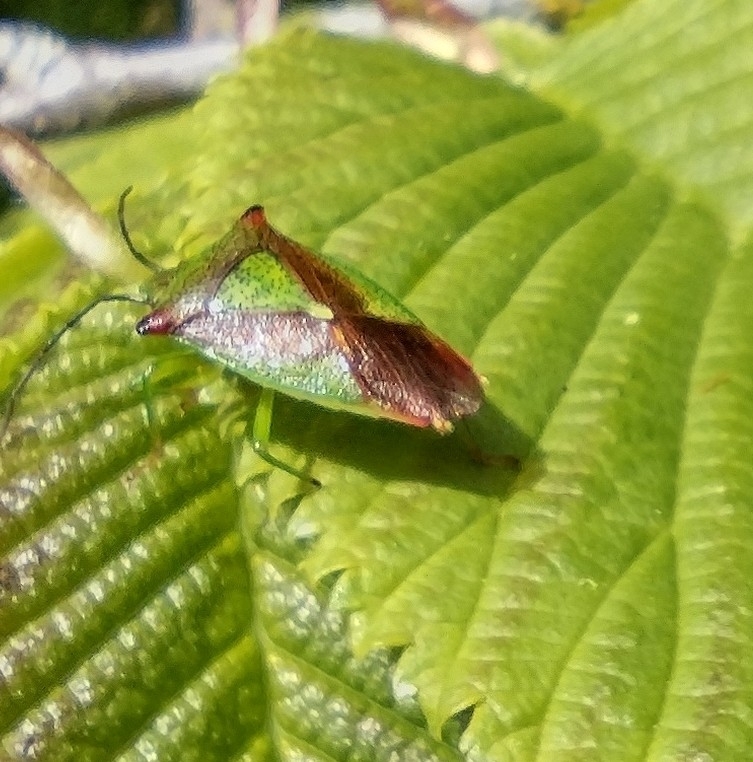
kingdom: Animalia
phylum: Arthropoda
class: Insecta
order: Hemiptera
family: Acanthosomatidae
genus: Acanthosoma
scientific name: Acanthosoma haemorrhoidale
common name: Hawthorn shieldbug
